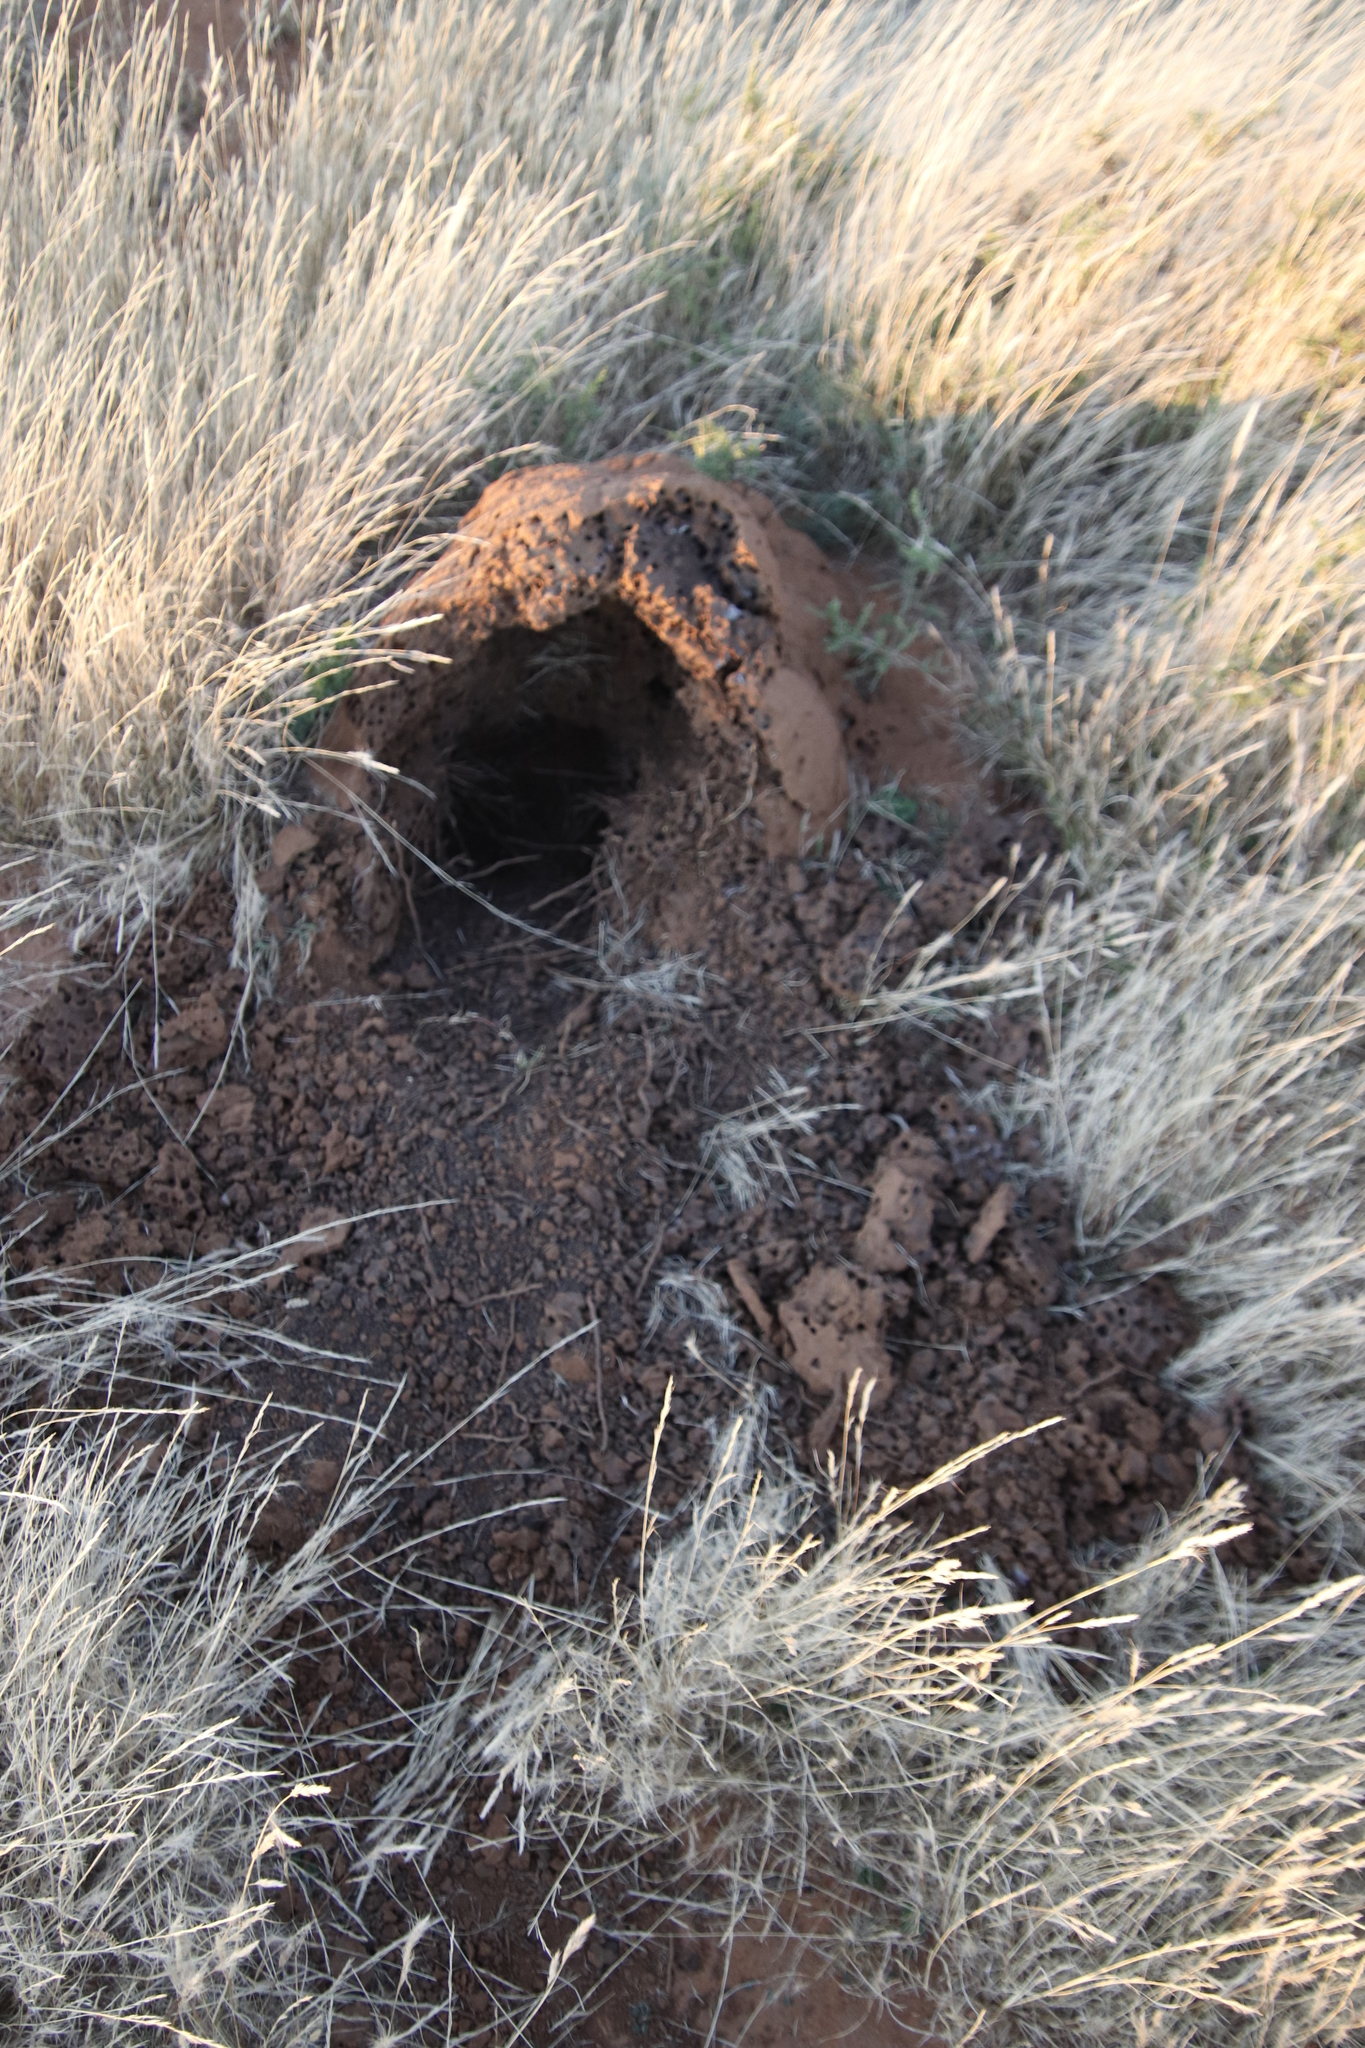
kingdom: Animalia
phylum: Chordata
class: Mammalia
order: Tubulidentata
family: Orycteropodidae
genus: Orycteropus
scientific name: Orycteropus afer
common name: Aardvark
